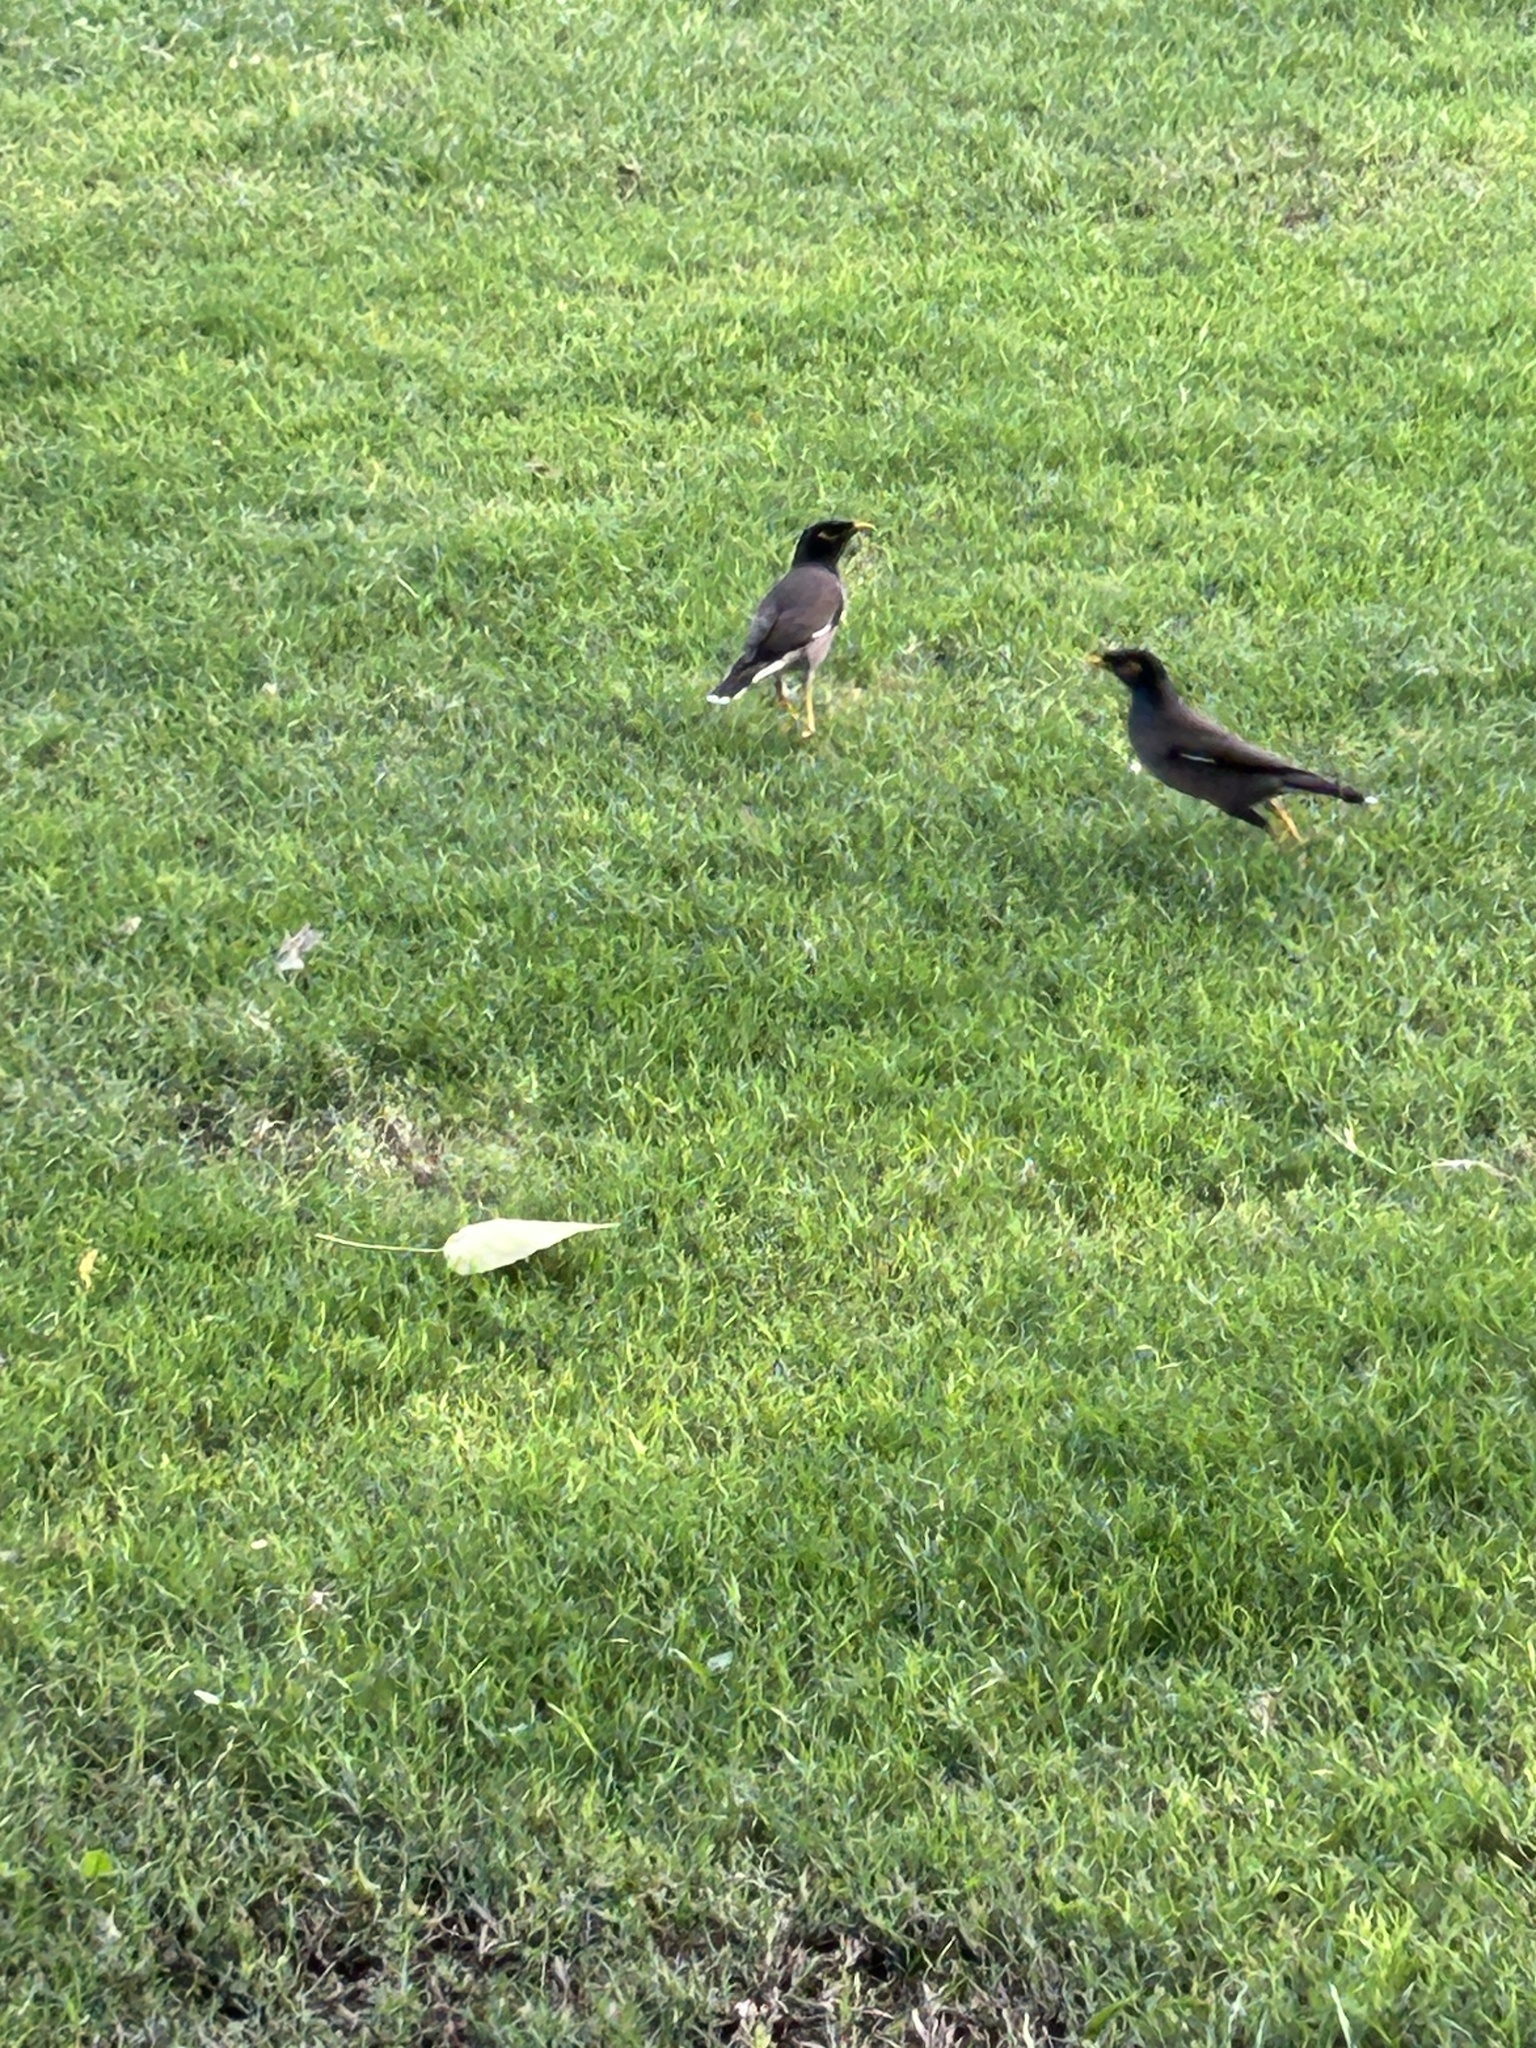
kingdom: Animalia
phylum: Chordata
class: Aves
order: Passeriformes
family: Sturnidae
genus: Acridotheres
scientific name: Acridotheres tristis
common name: Common myna
